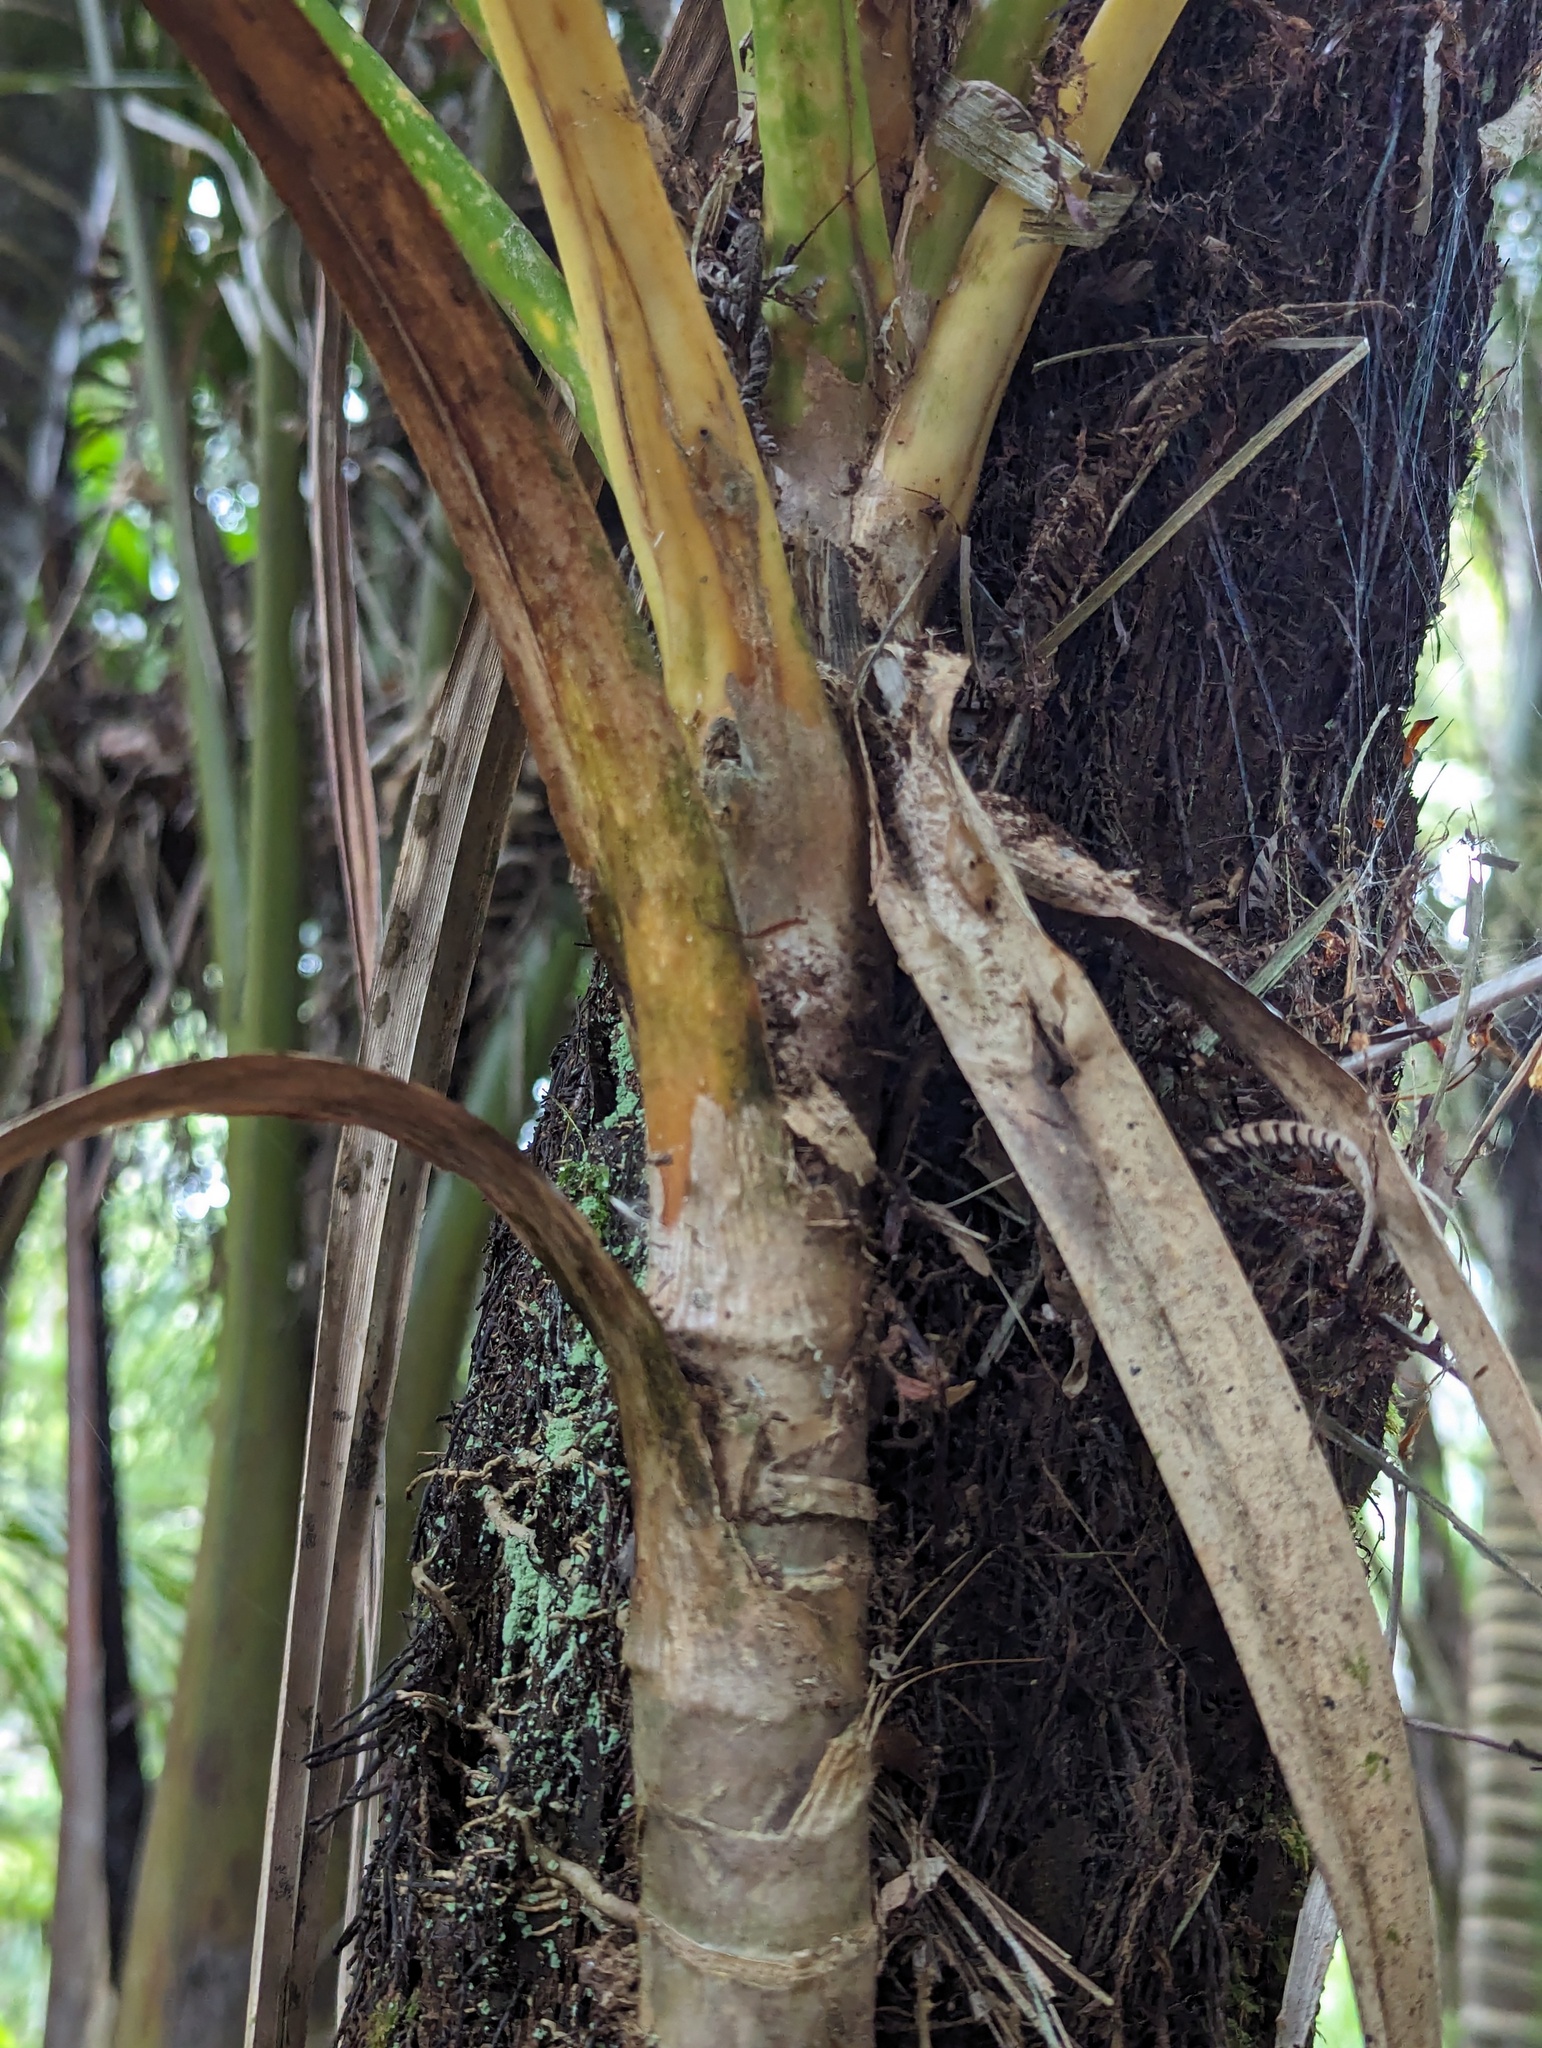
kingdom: Plantae
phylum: Tracheophyta
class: Liliopsida
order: Pandanales
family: Pandanaceae
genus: Freycinetia
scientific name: Freycinetia banksii
